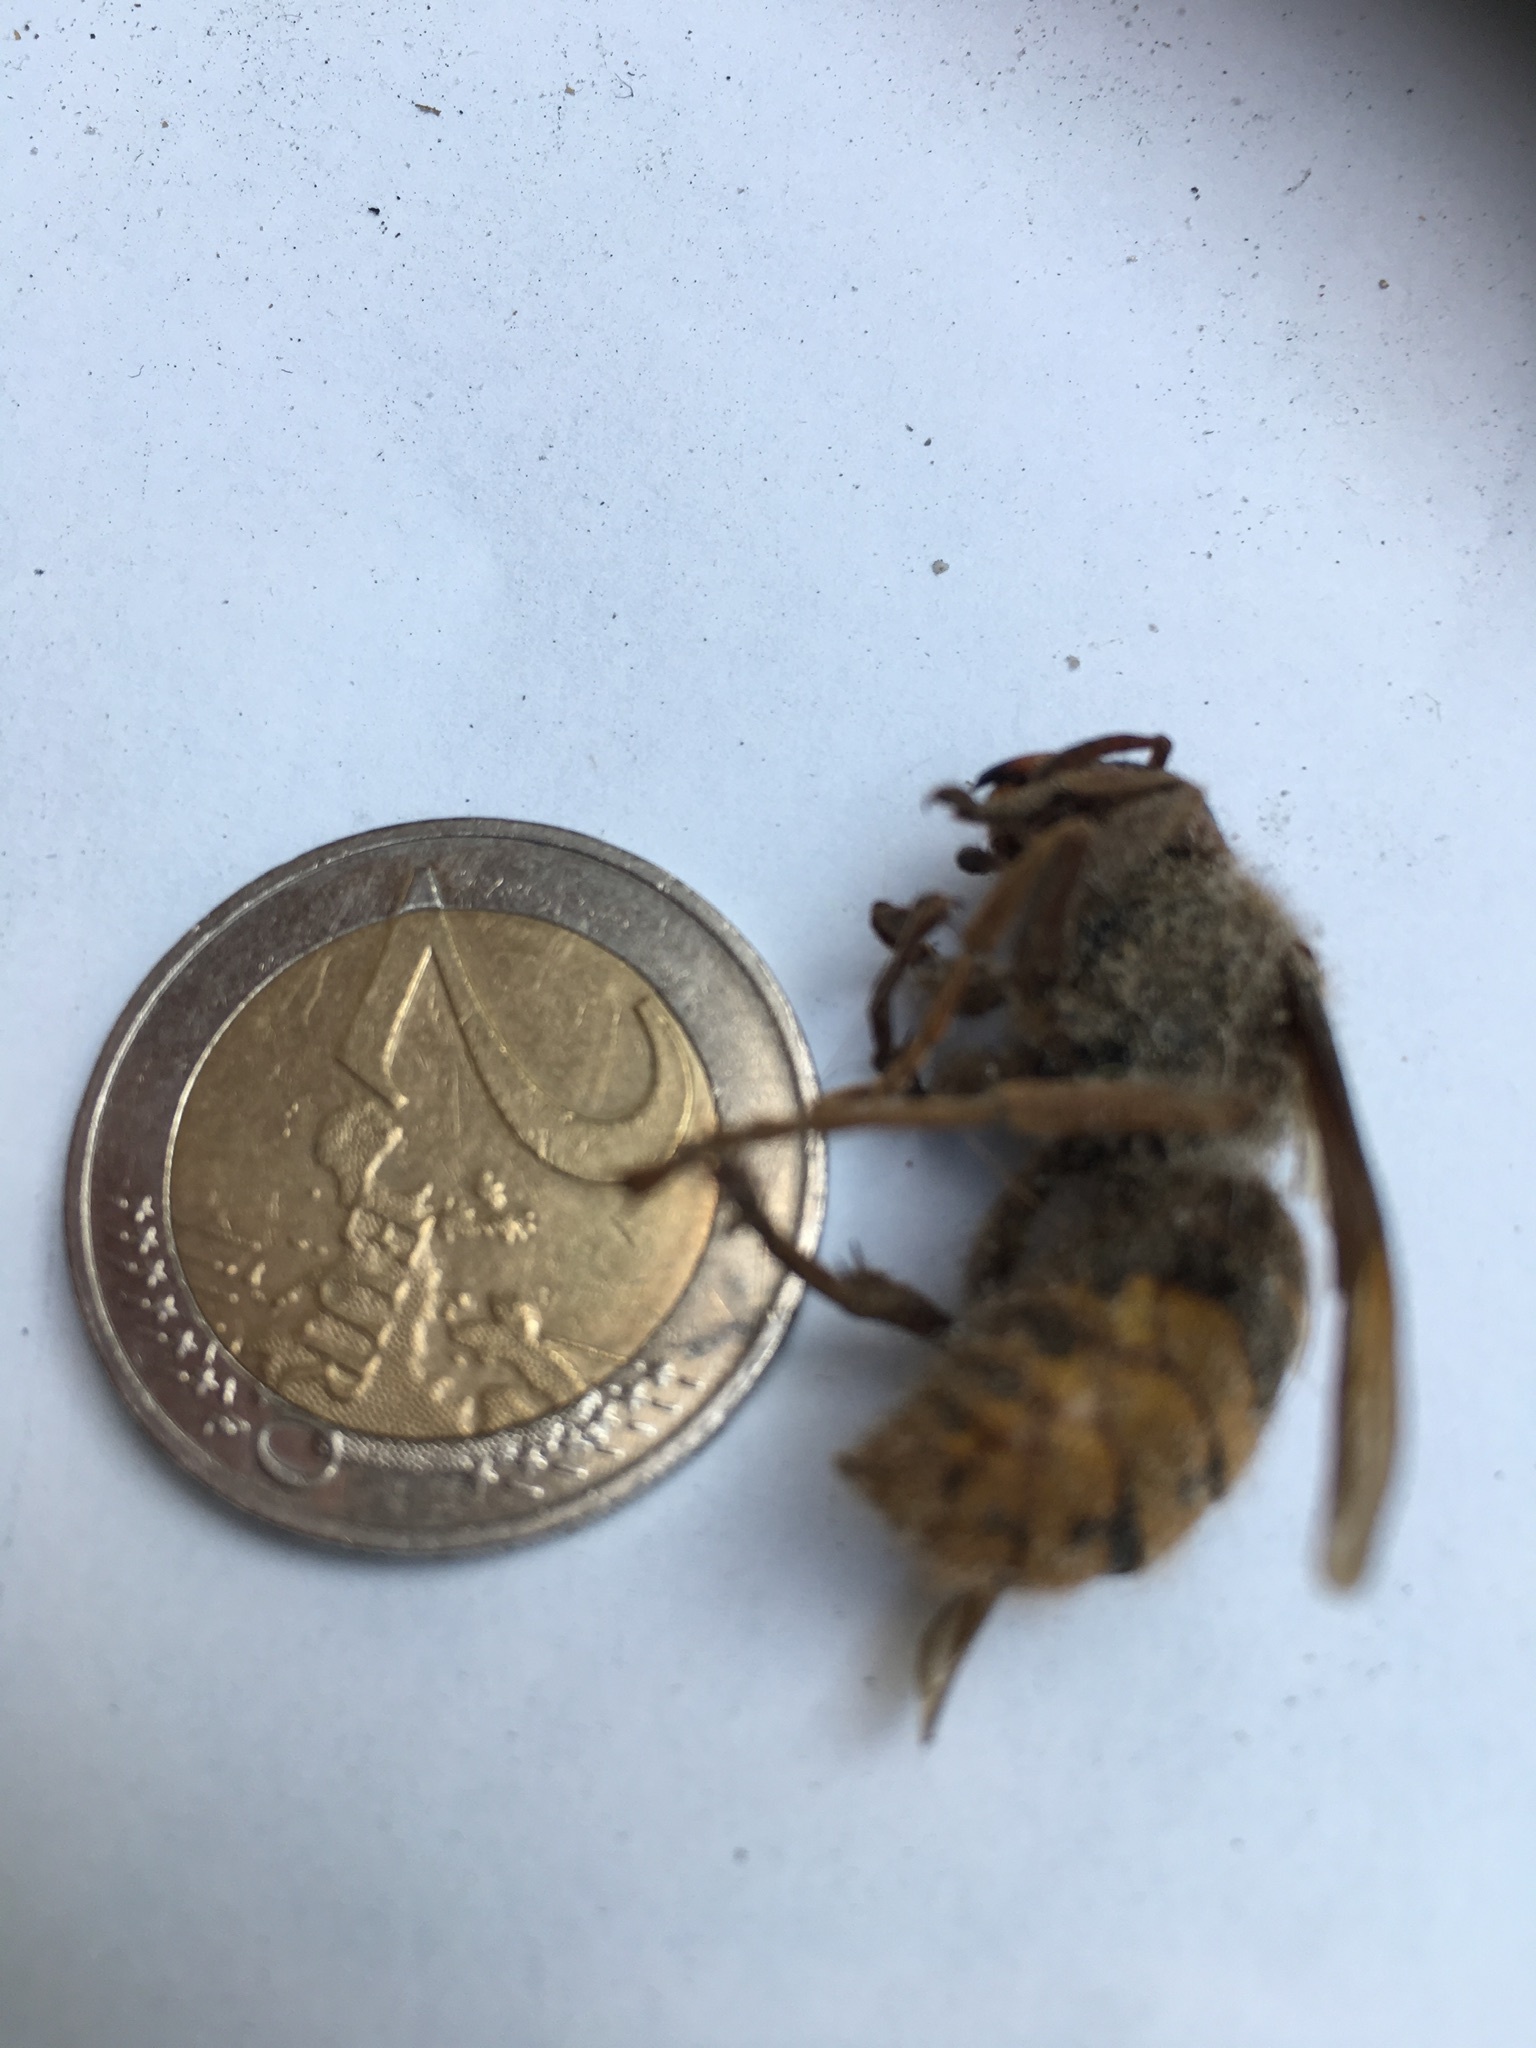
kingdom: Animalia
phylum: Arthropoda
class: Insecta
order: Hymenoptera
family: Vespidae
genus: Vespa
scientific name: Vespa crabro
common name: Hornet
